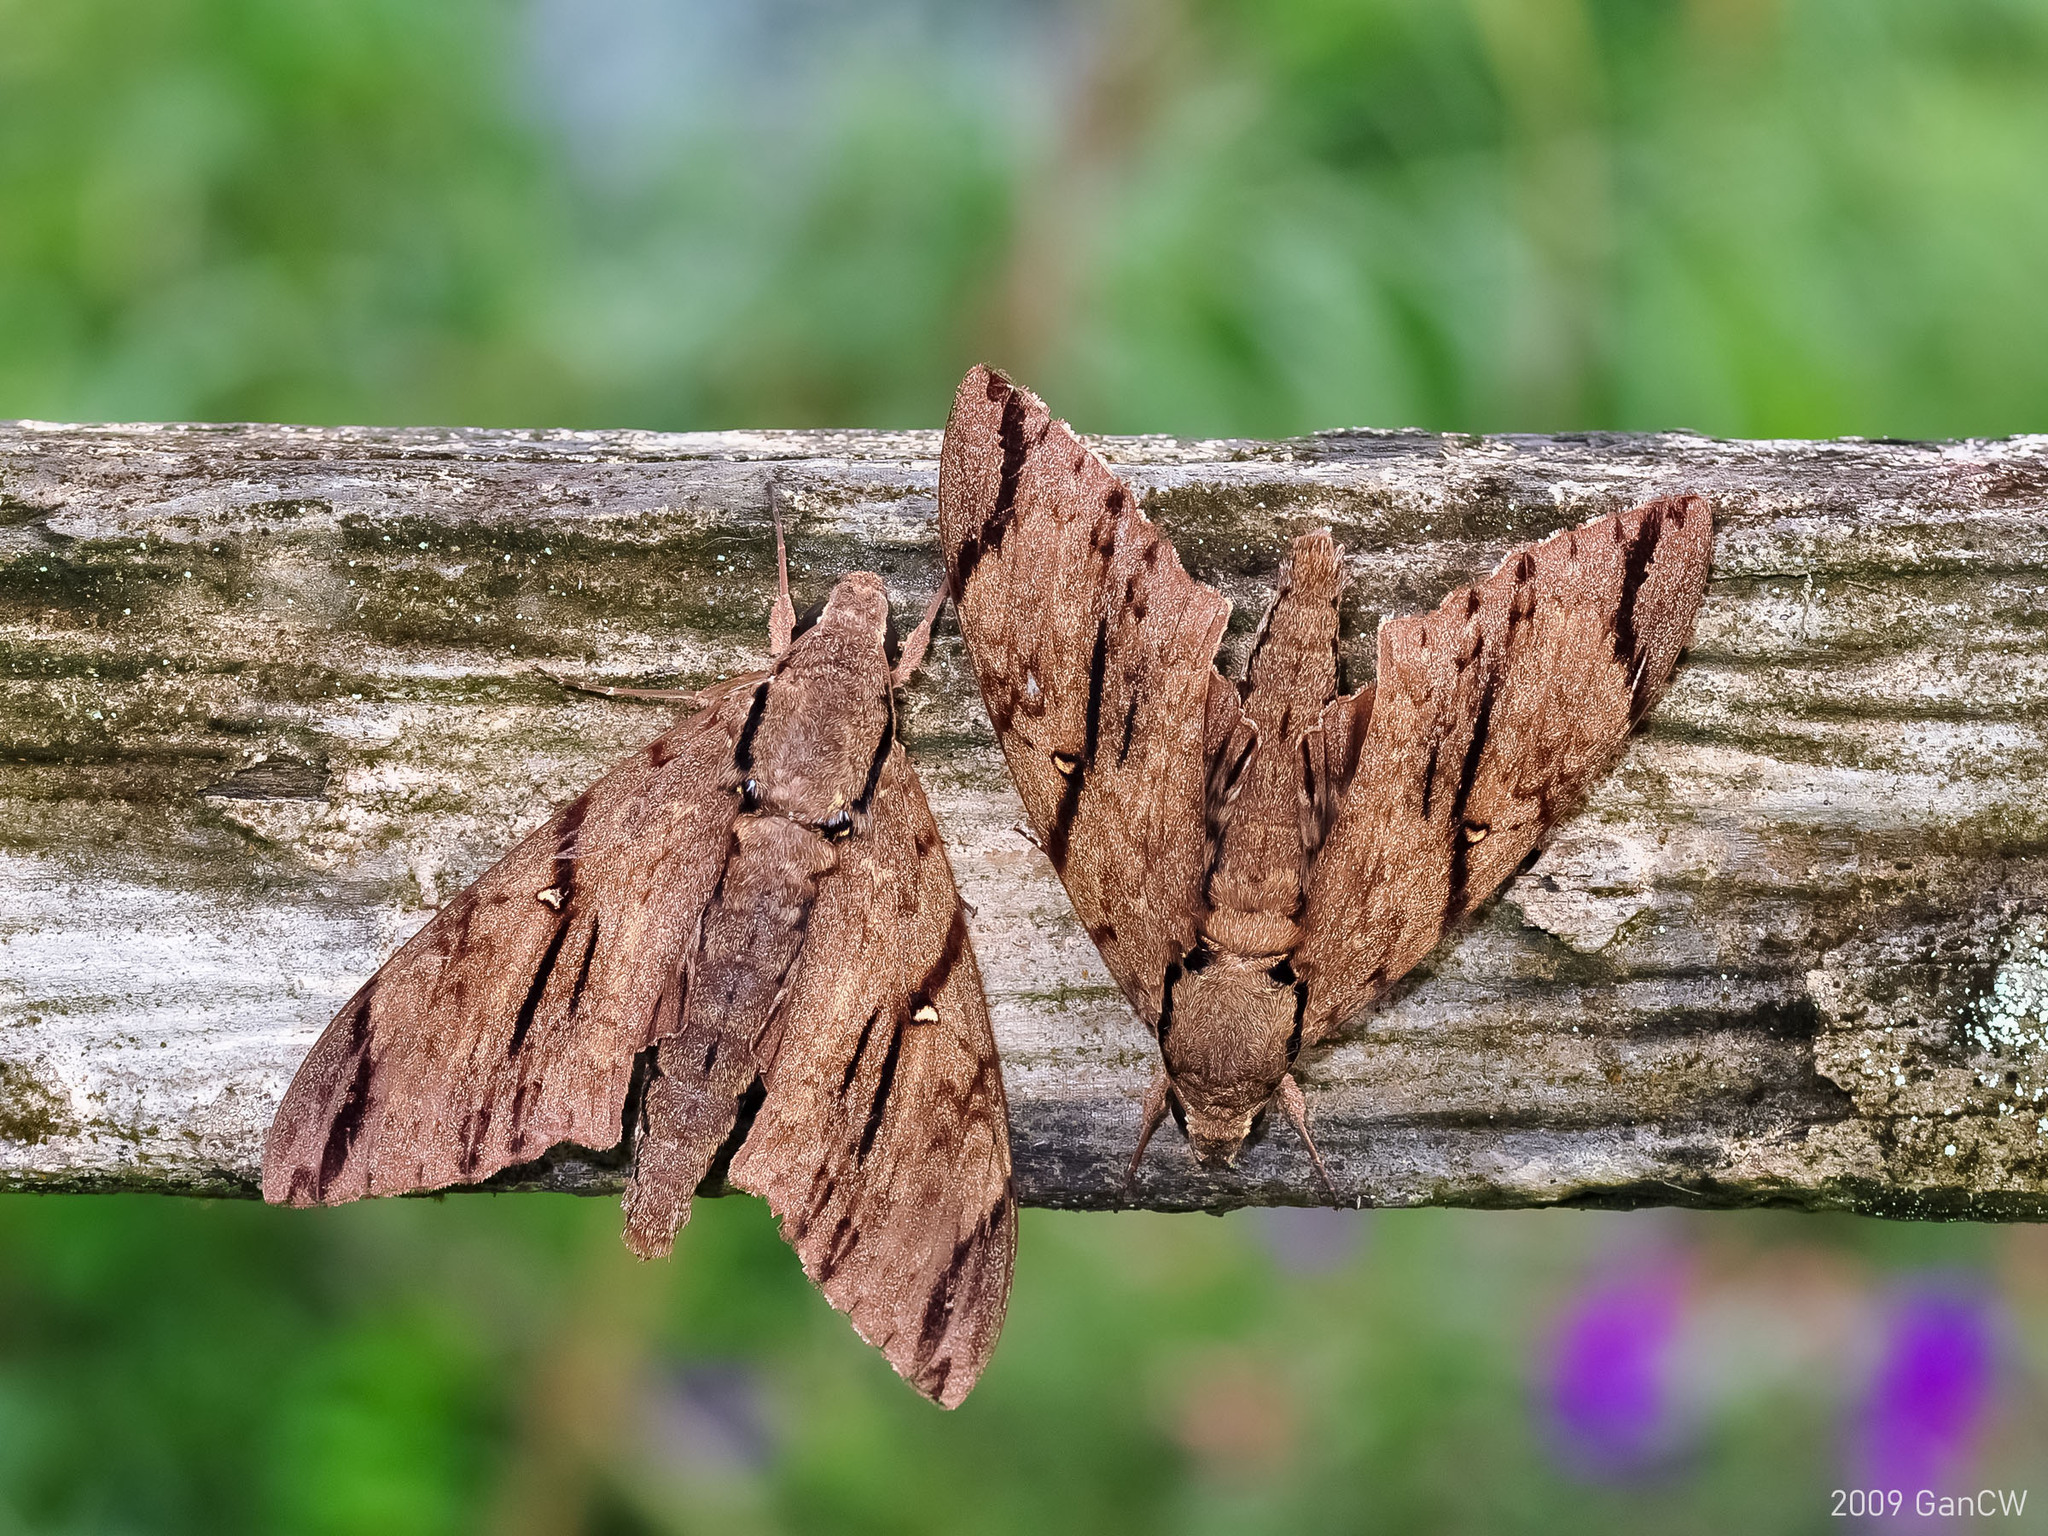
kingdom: Animalia
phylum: Arthropoda
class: Insecta
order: Lepidoptera
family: Sphingidae
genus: Cerberonoton
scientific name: Cerberonoton rubescens
